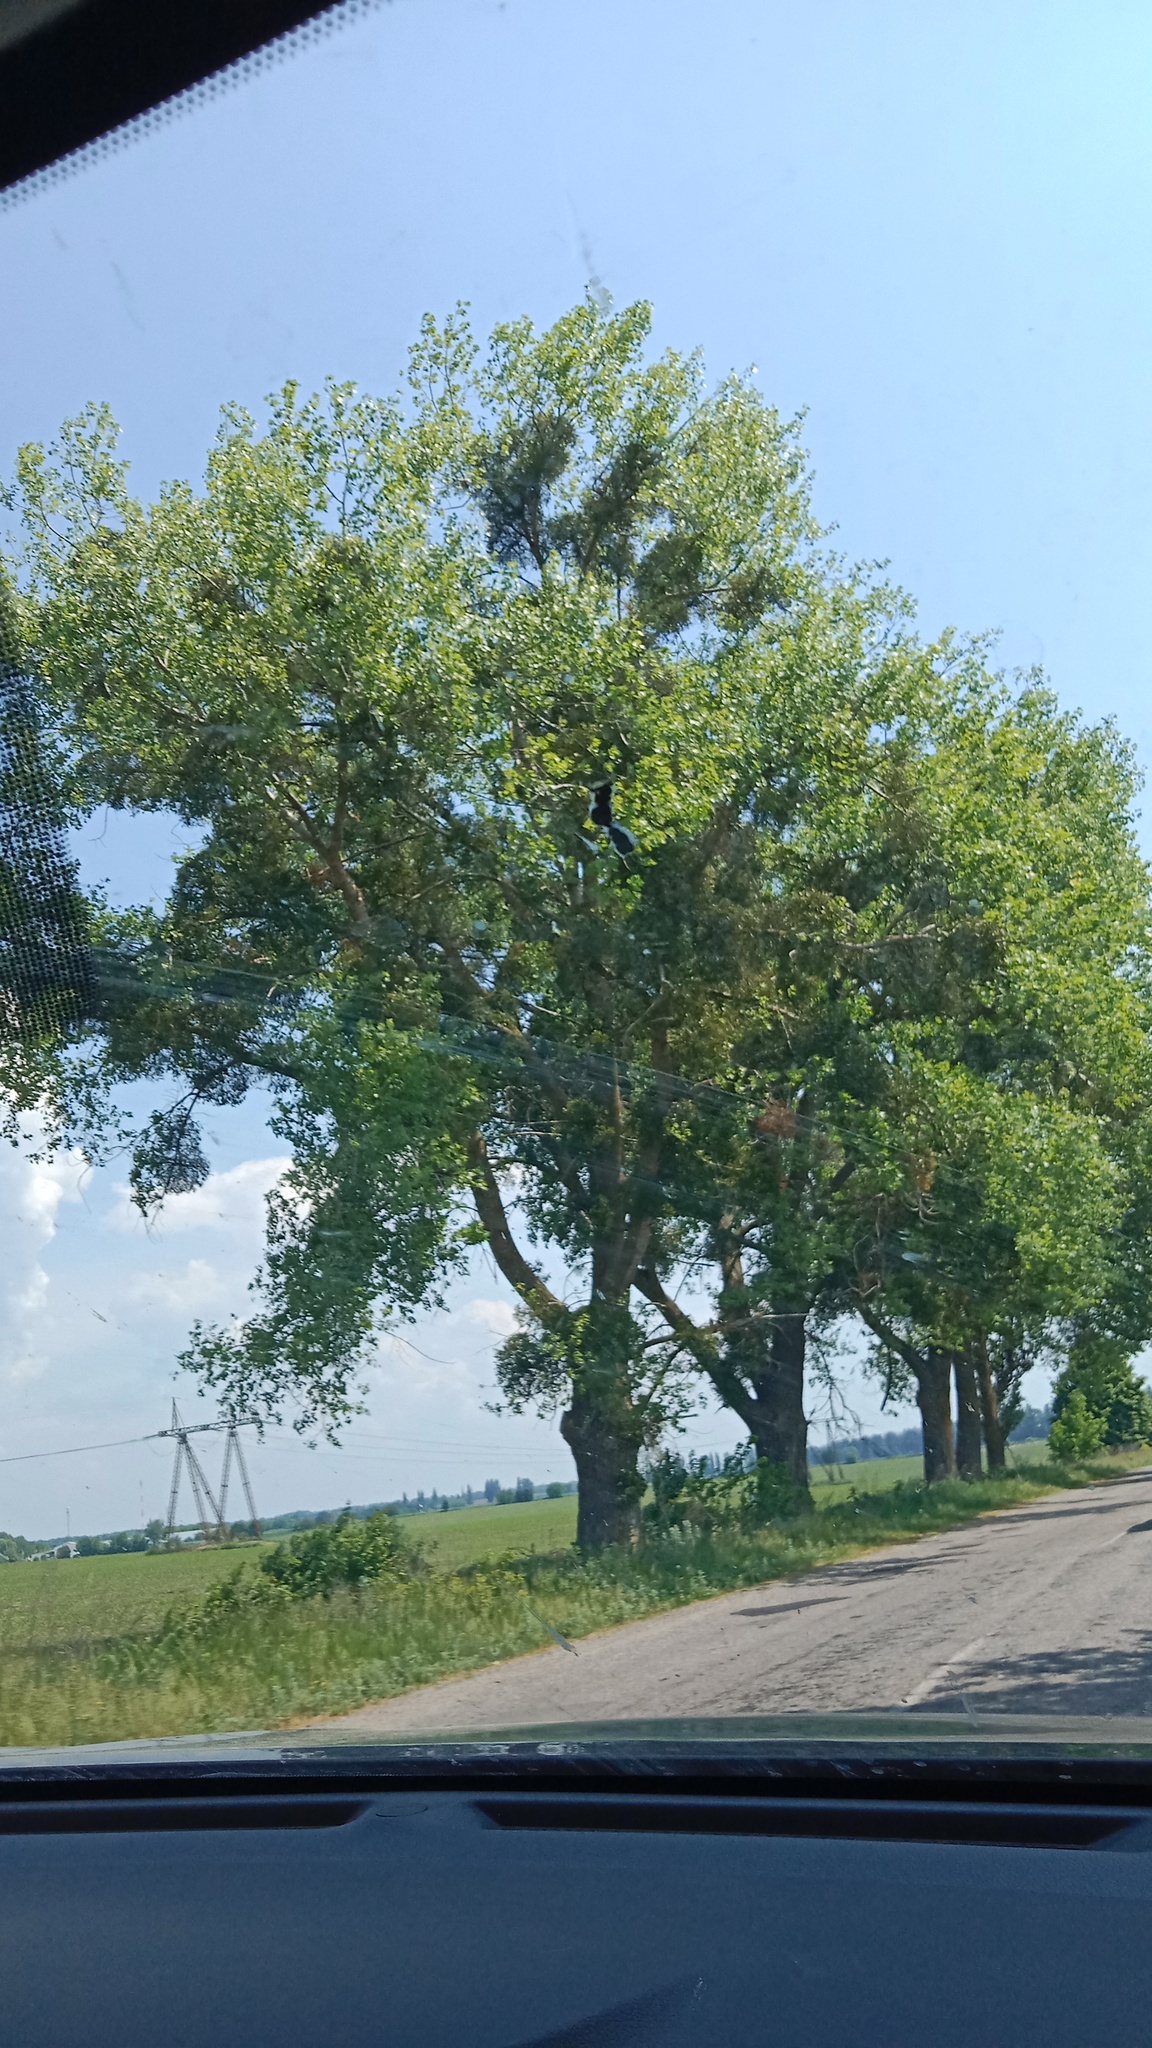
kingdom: Plantae
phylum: Tracheophyta
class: Magnoliopsida
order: Santalales
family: Viscaceae
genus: Viscum
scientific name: Viscum album
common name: Mistletoe
